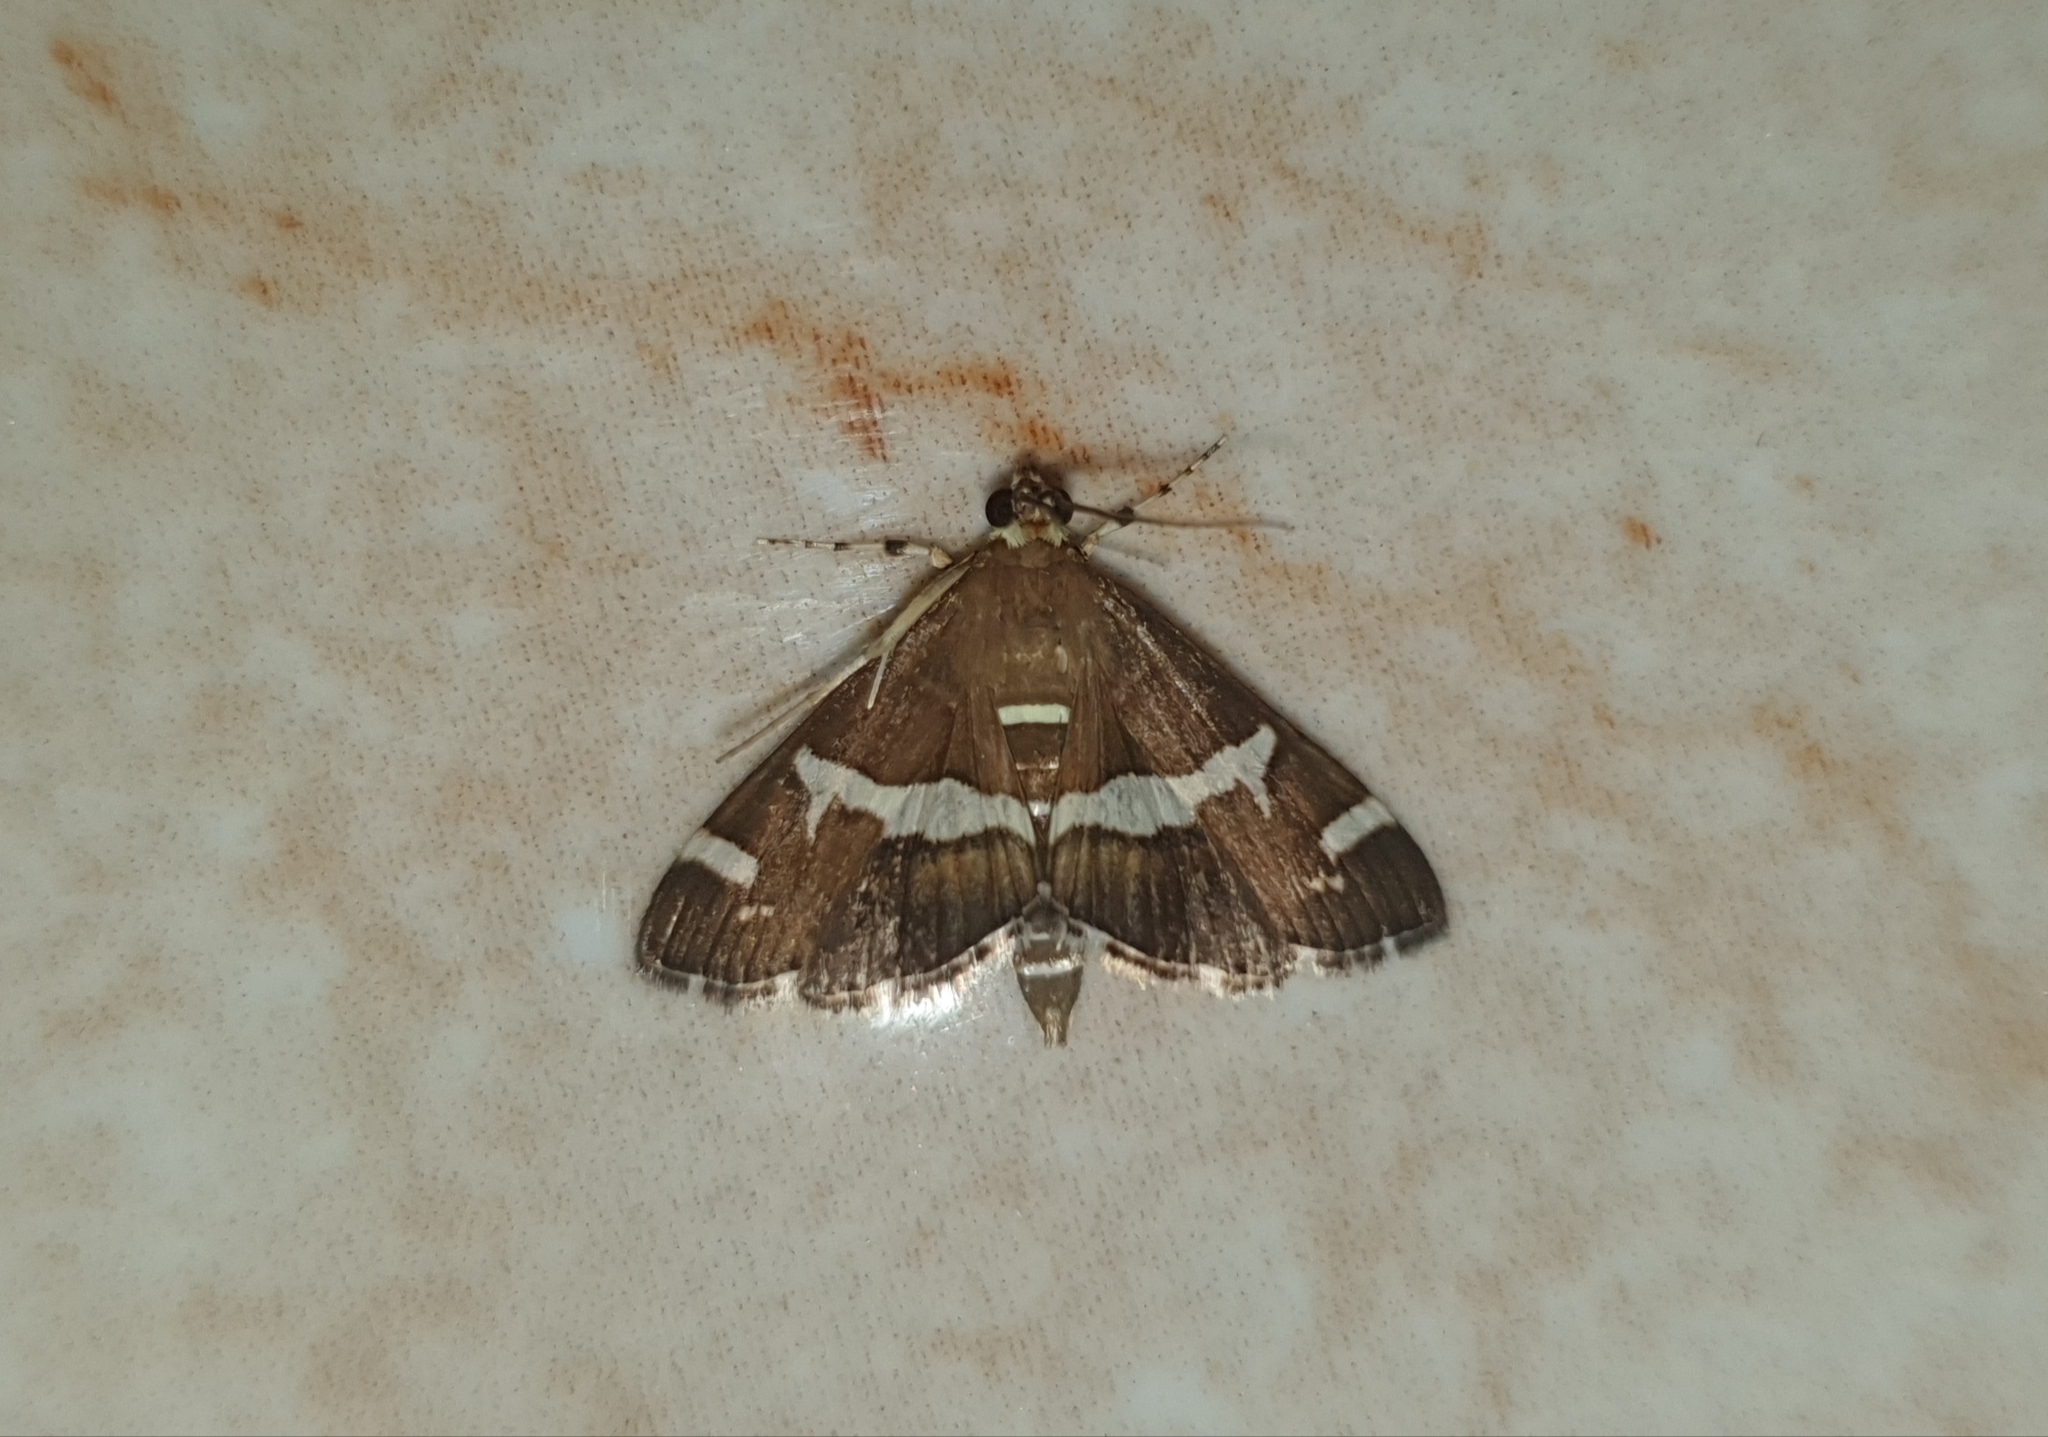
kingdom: Animalia
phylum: Arthropoda
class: Insecta
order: Lepidoptera
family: Crambidae
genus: Spoladea
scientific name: Spoladea recurvalis
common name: Beet webworm moth
